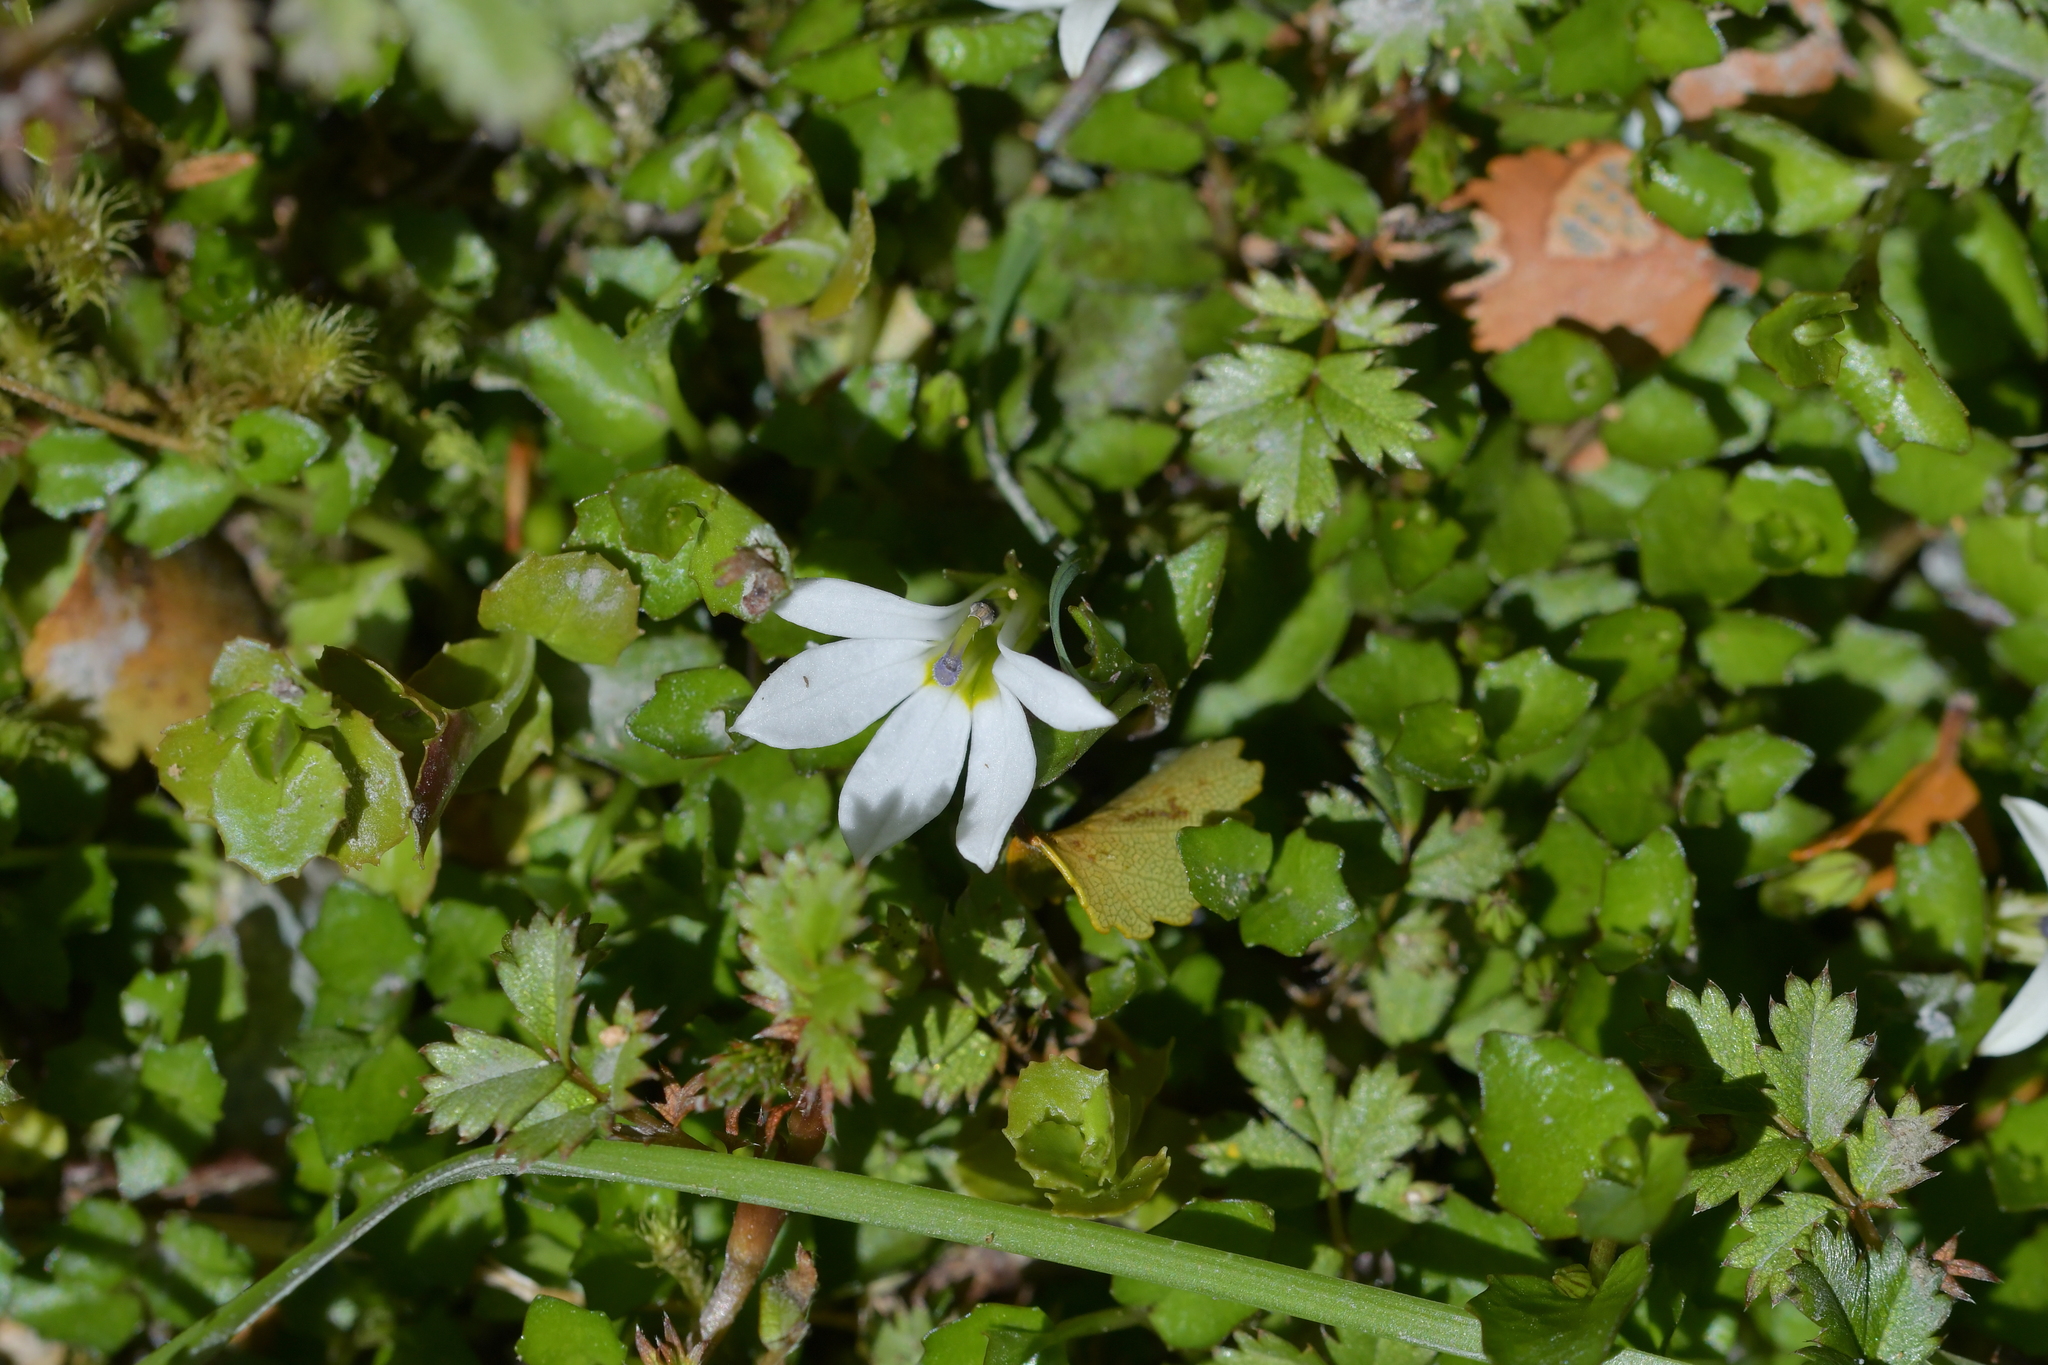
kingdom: Plantae
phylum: Tracheophyta
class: Magnoliopsida
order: Asterales
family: Campanulaceae
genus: Lobelia
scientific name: Lobelia angulata
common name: Lawn lobelia
